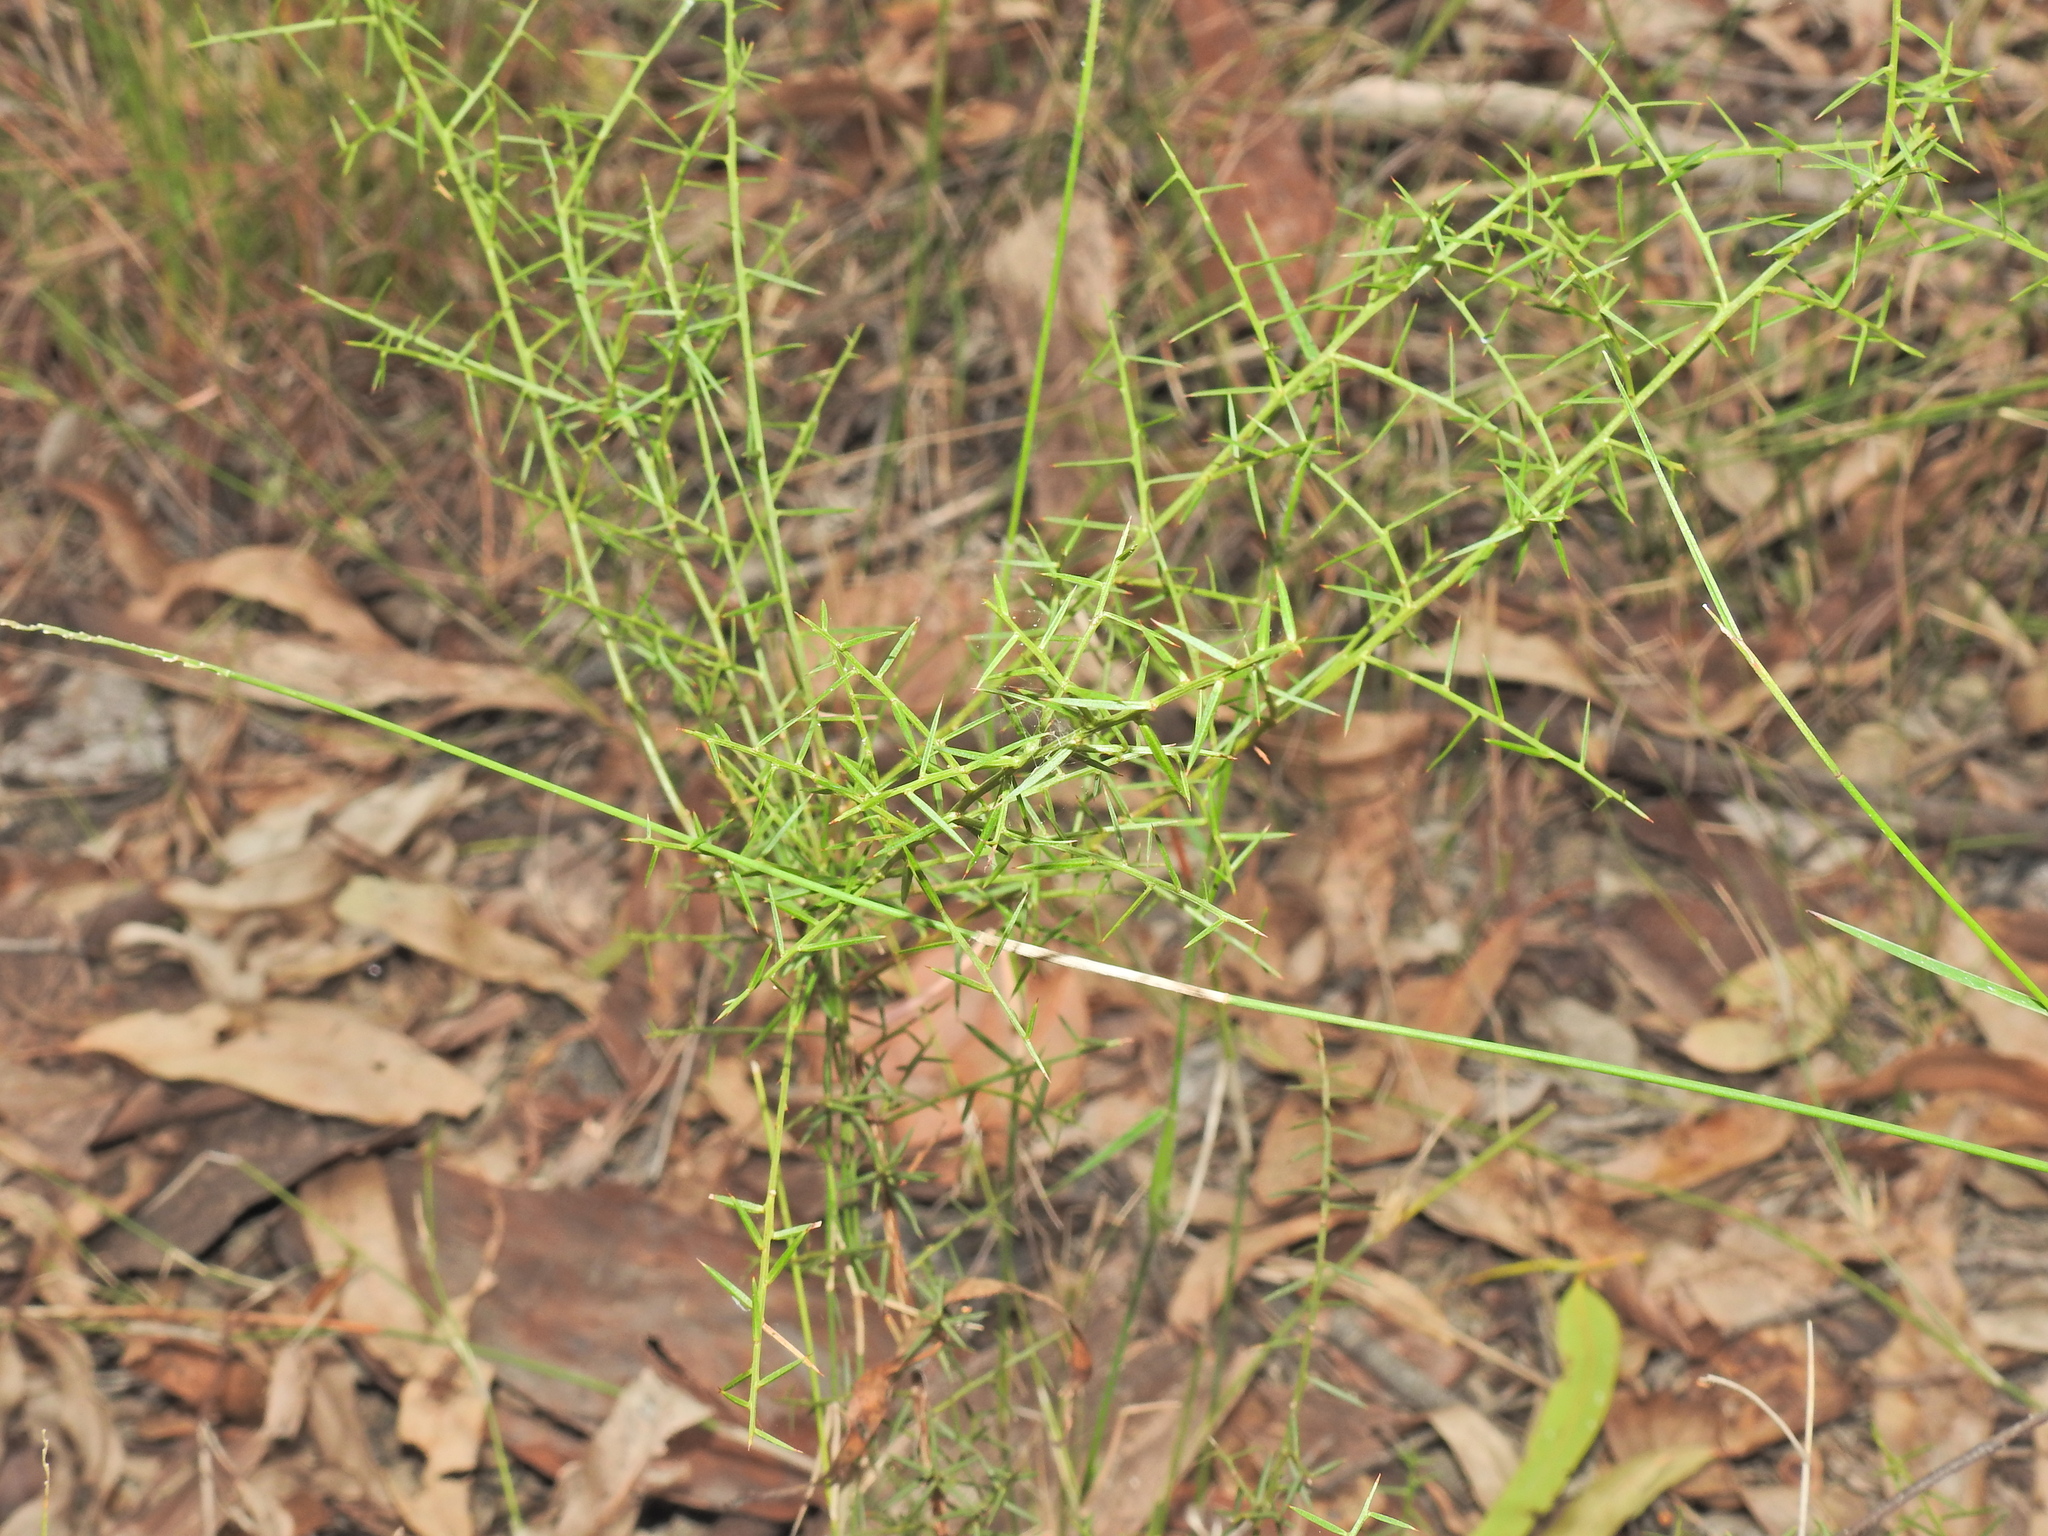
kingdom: Plantae
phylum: Tracheophyta
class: Magnoliopsida
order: Fabales
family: Fabaceae
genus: Daviesia
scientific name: Daviesia ulicifolia
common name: Gorse bitter-pea
